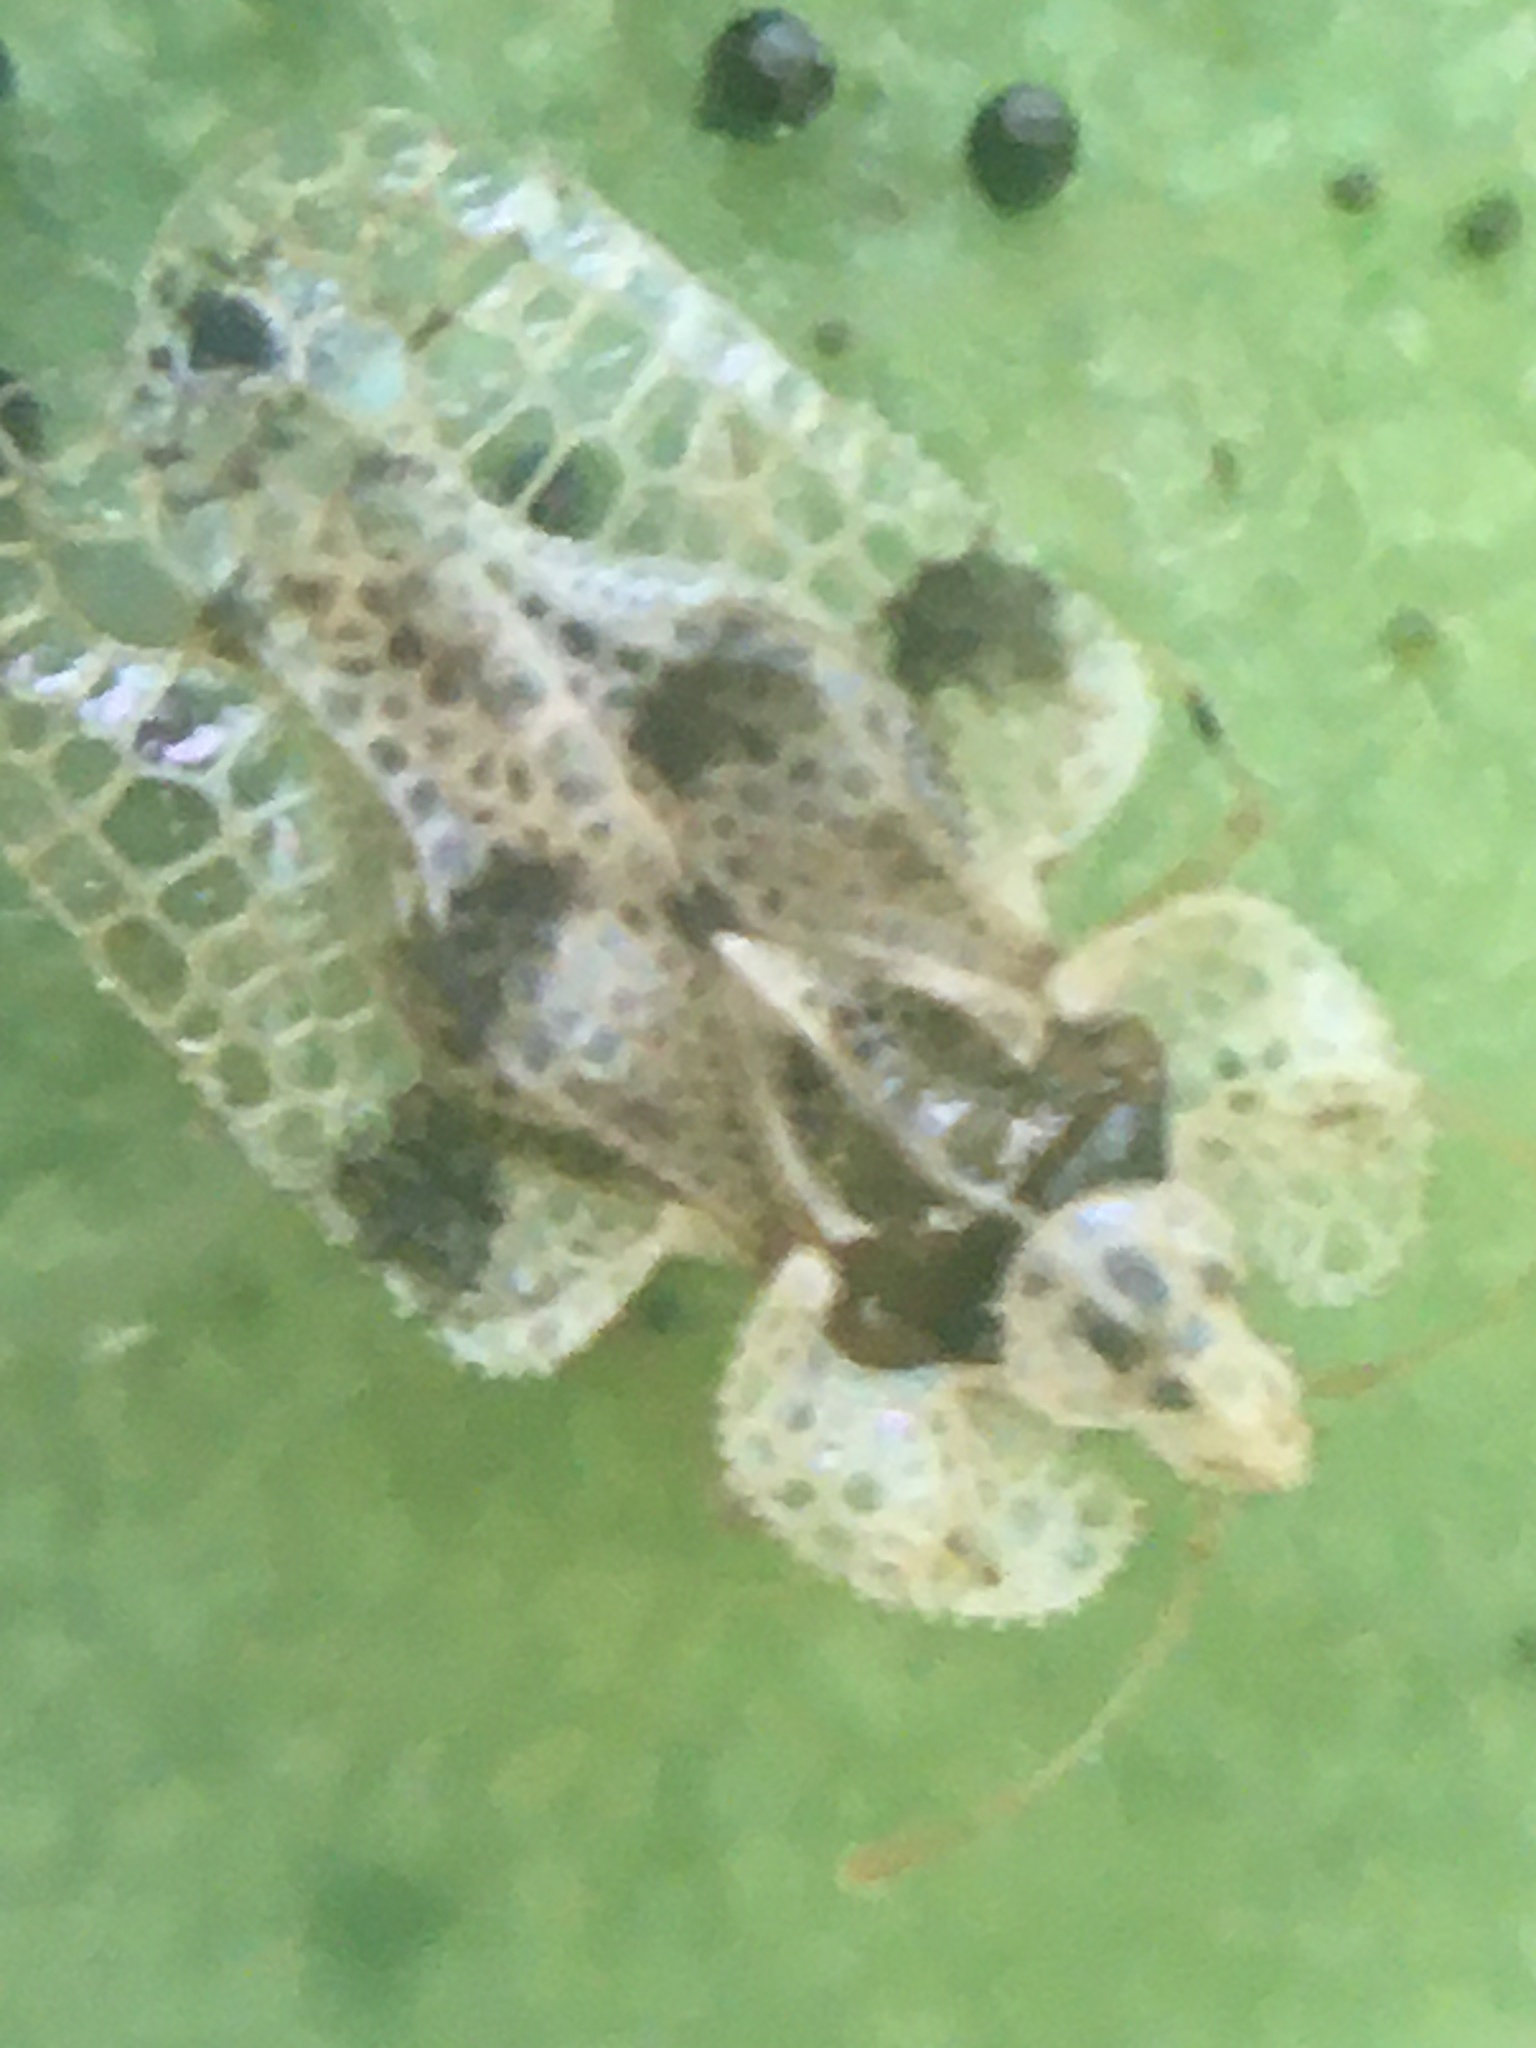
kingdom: Animalia
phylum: Arthropoda
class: Insecta
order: Hemiptera
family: Tingidae
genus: Corythucha
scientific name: Corythucha arcuata
